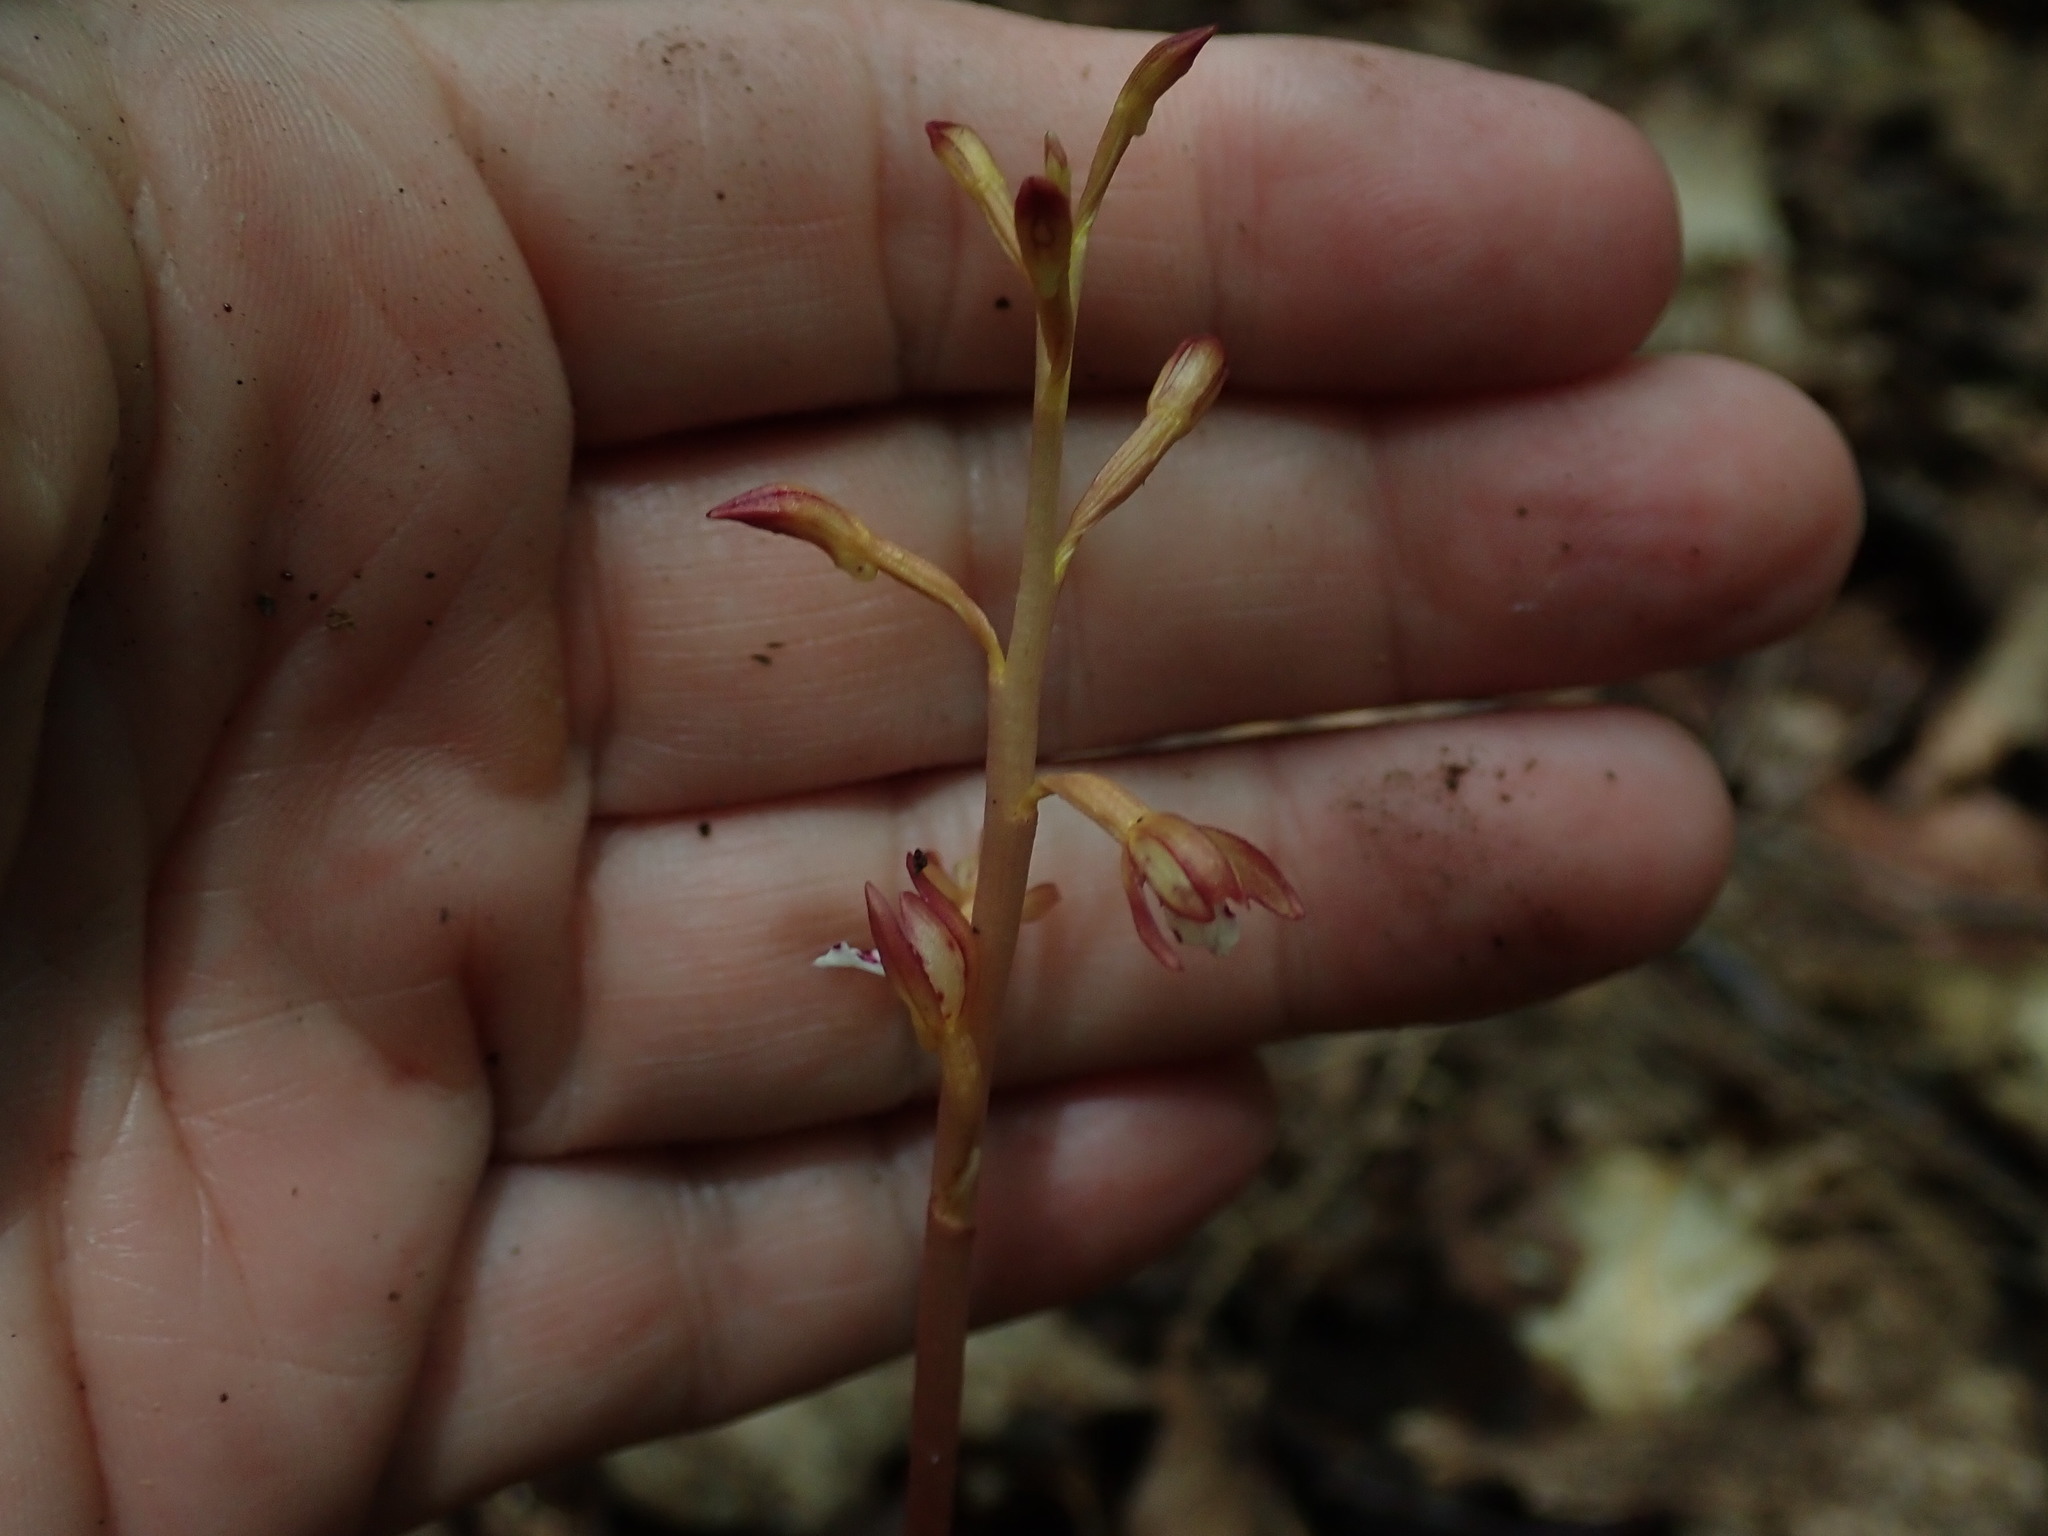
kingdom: Plantae
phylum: Tracheophyta
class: Liliopsida
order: Asparagales
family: Orchidaceae
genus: Corallorhiza
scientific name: Corallorhiza maculata
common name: Spotted coralroot
